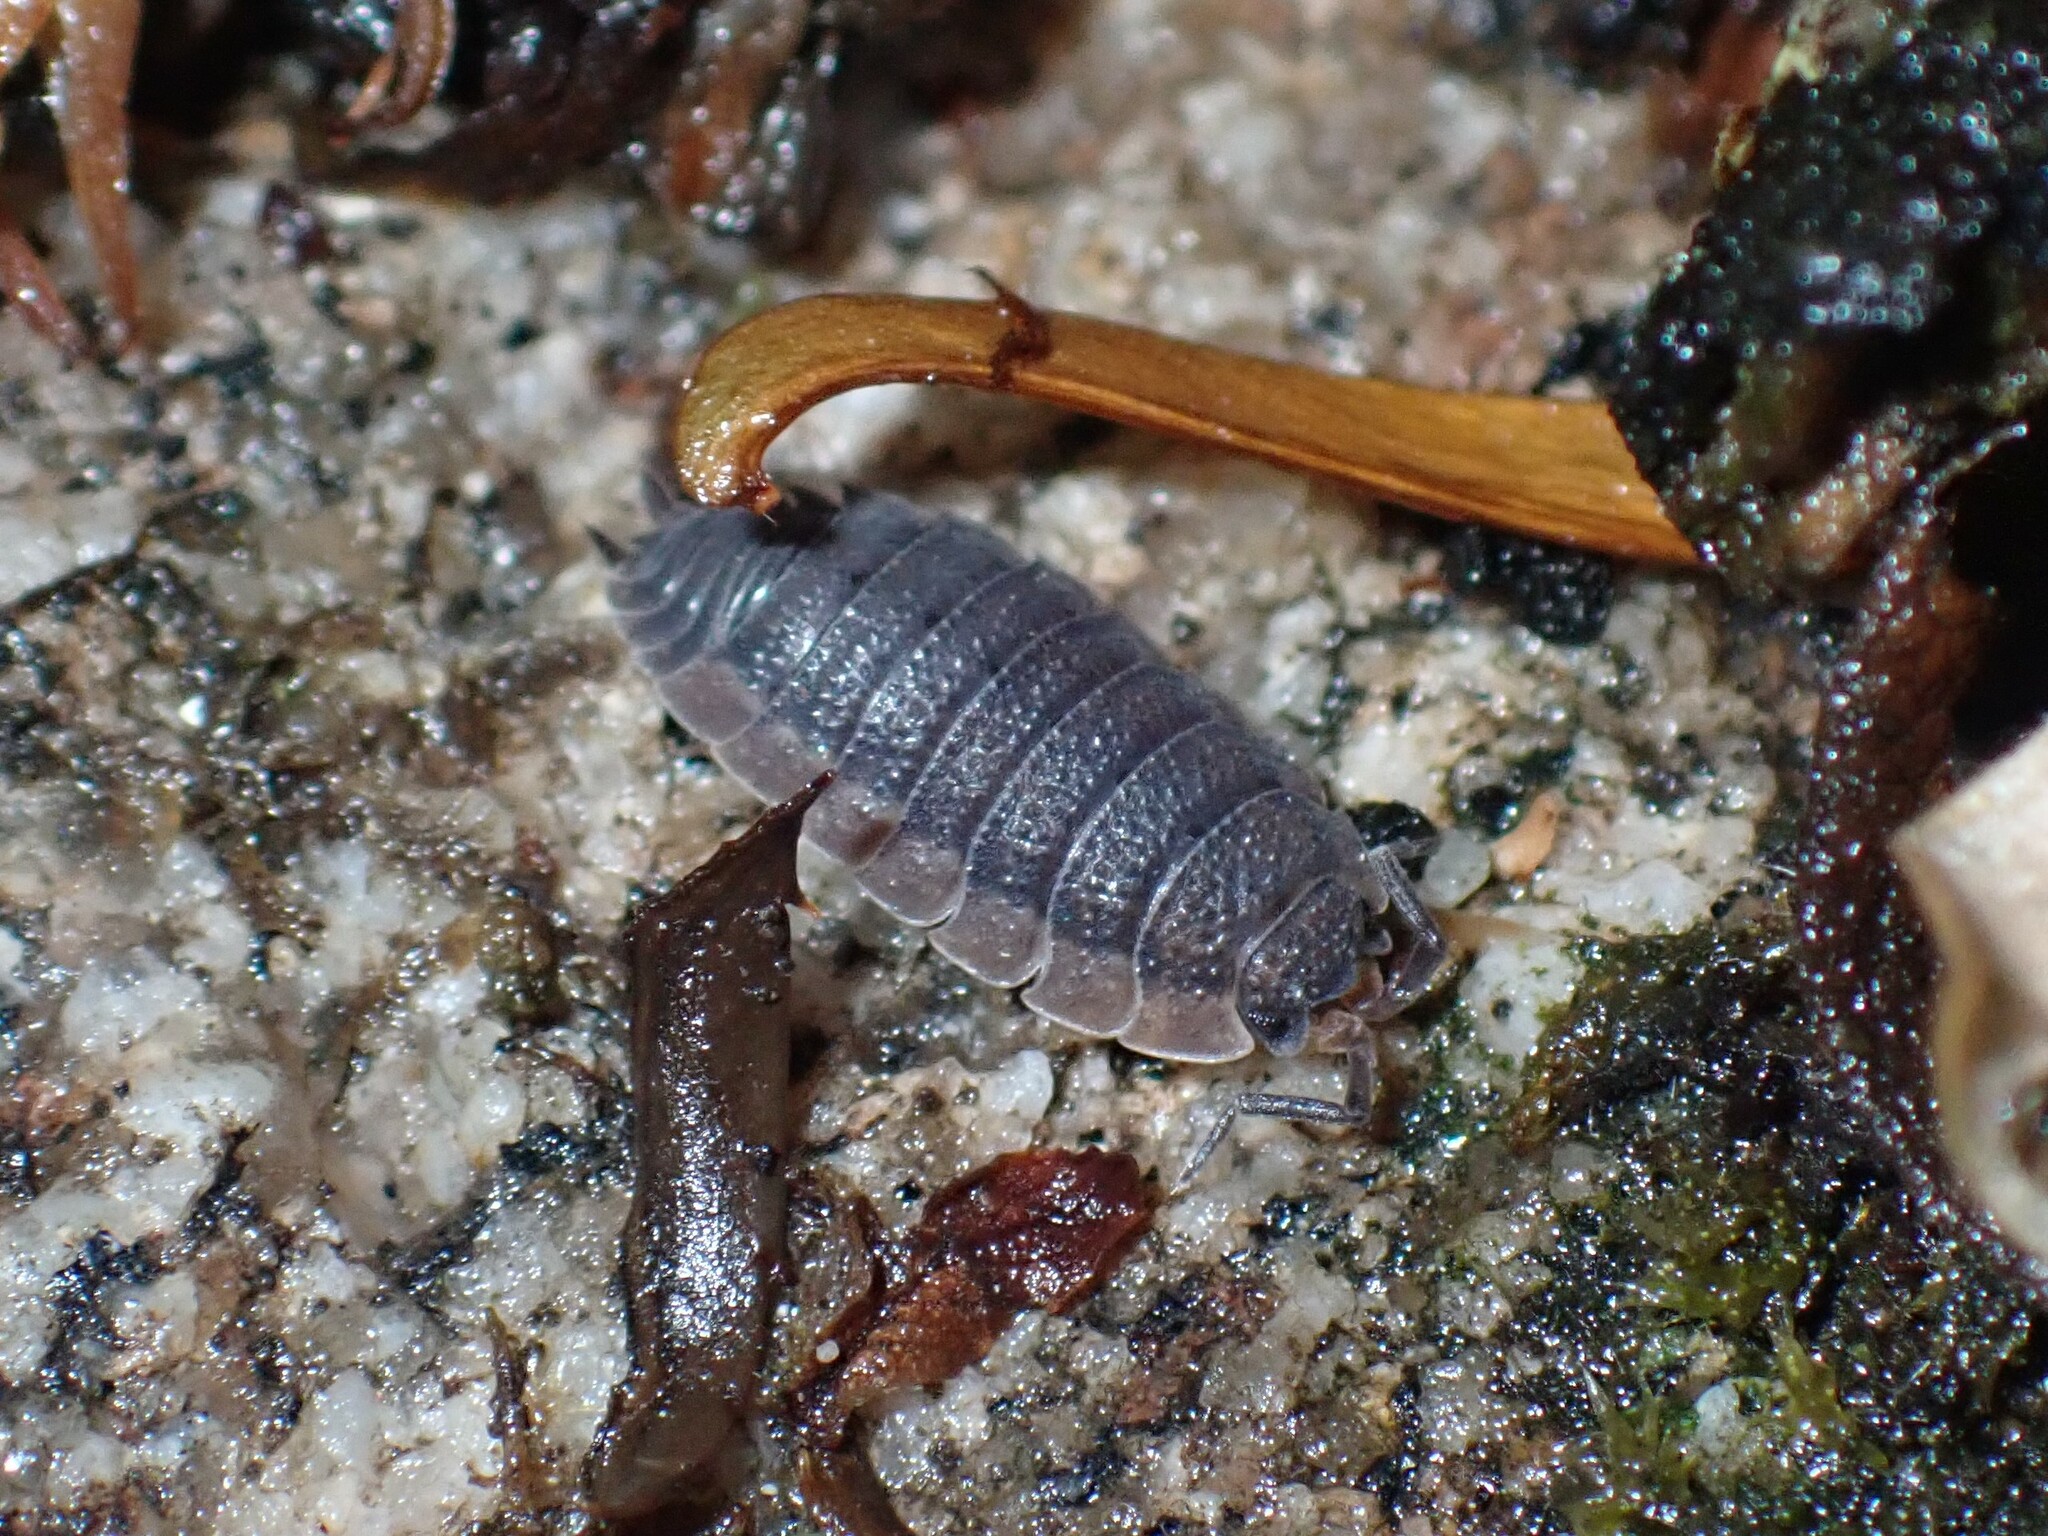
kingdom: Animalia
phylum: Arthropoda
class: Malacostraca
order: Isopoda
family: Porcellionidae
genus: Porcellio
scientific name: Porcellio scaber
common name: Common rough woodlouse
